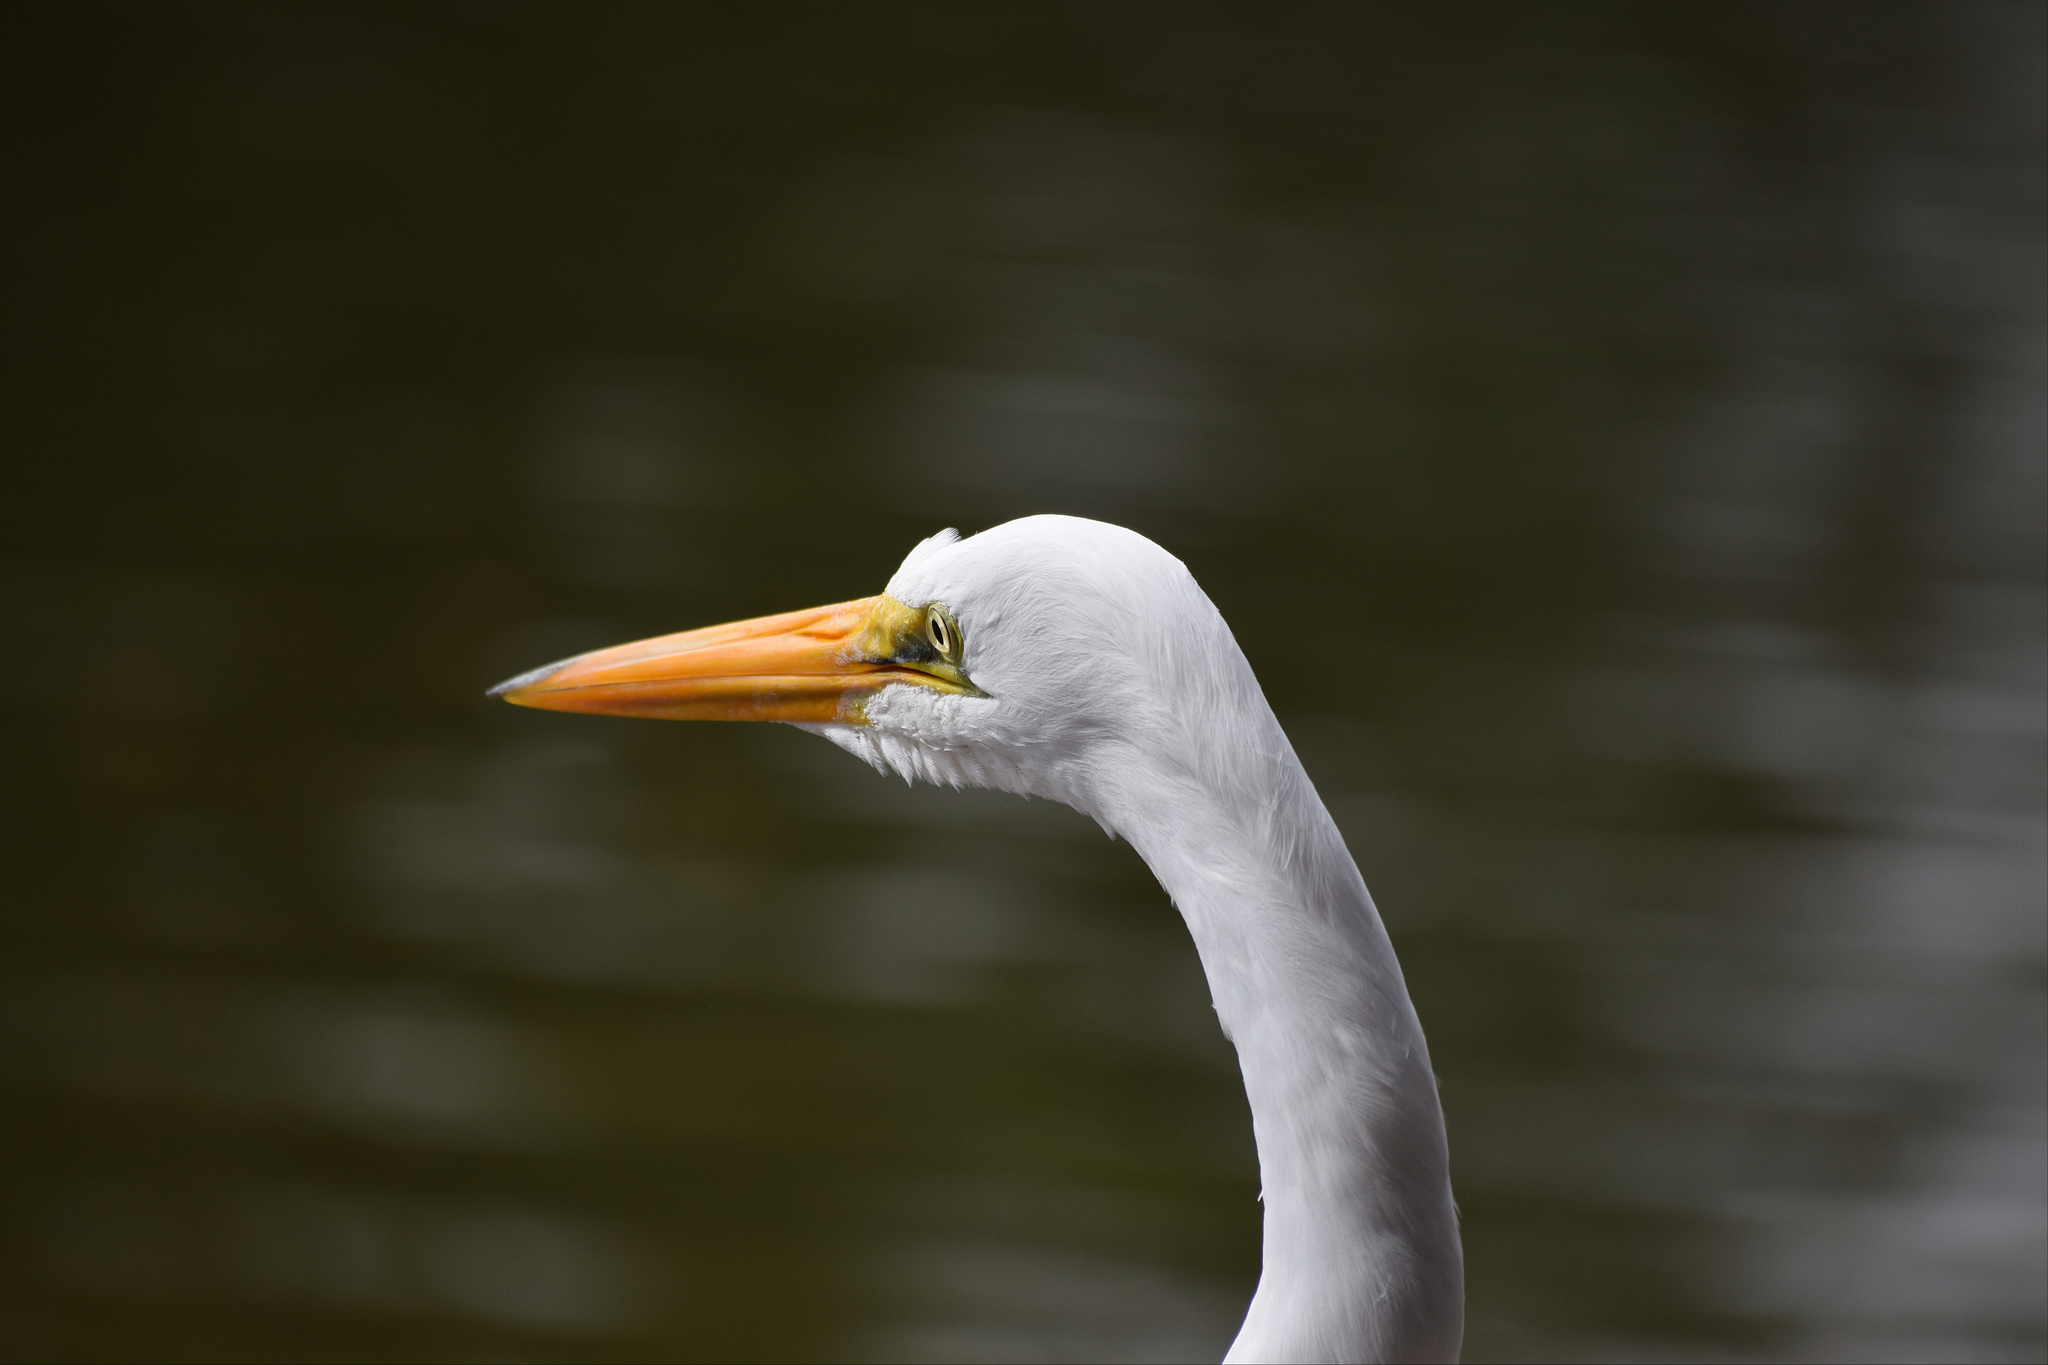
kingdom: Animalia
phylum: Chordata
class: Aves
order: Pelecaniformes
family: Ardeidae
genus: Ardea
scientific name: Ardea alba
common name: Great egret
